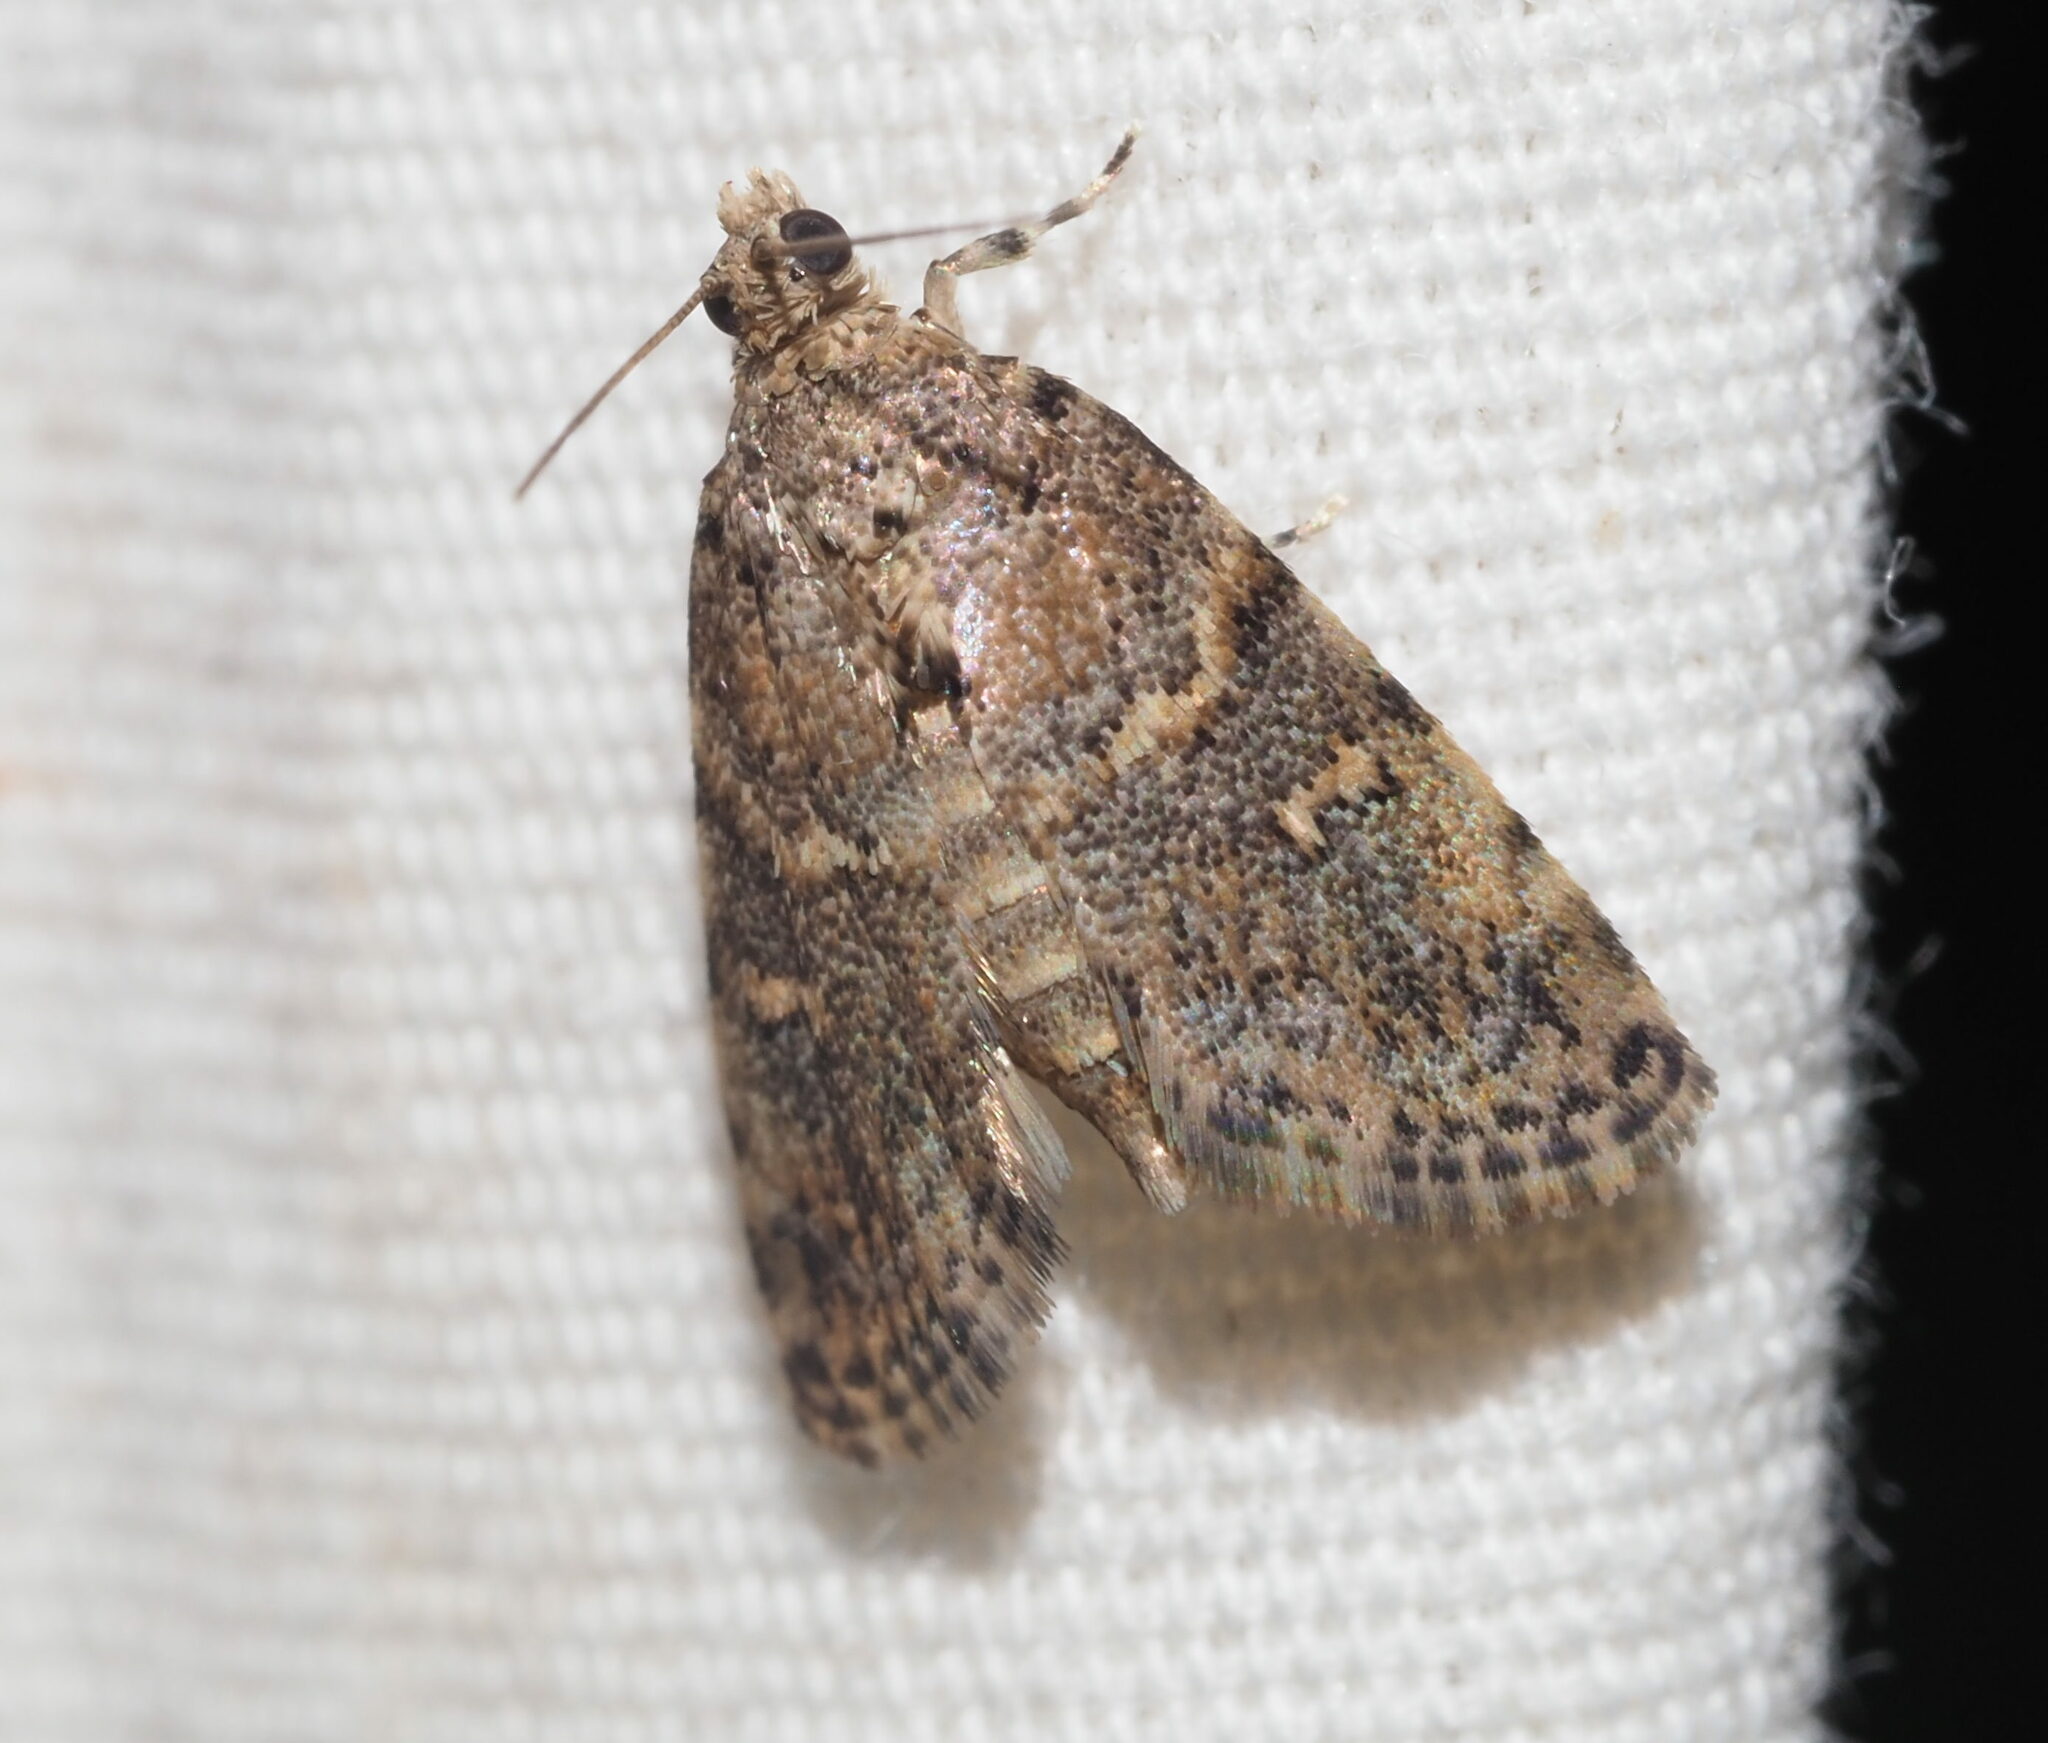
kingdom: Animalia
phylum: Arthropoda
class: Insecta
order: Lepidoptera
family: Crambidae
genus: Mestolobes
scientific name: Mestolobes abnormis
